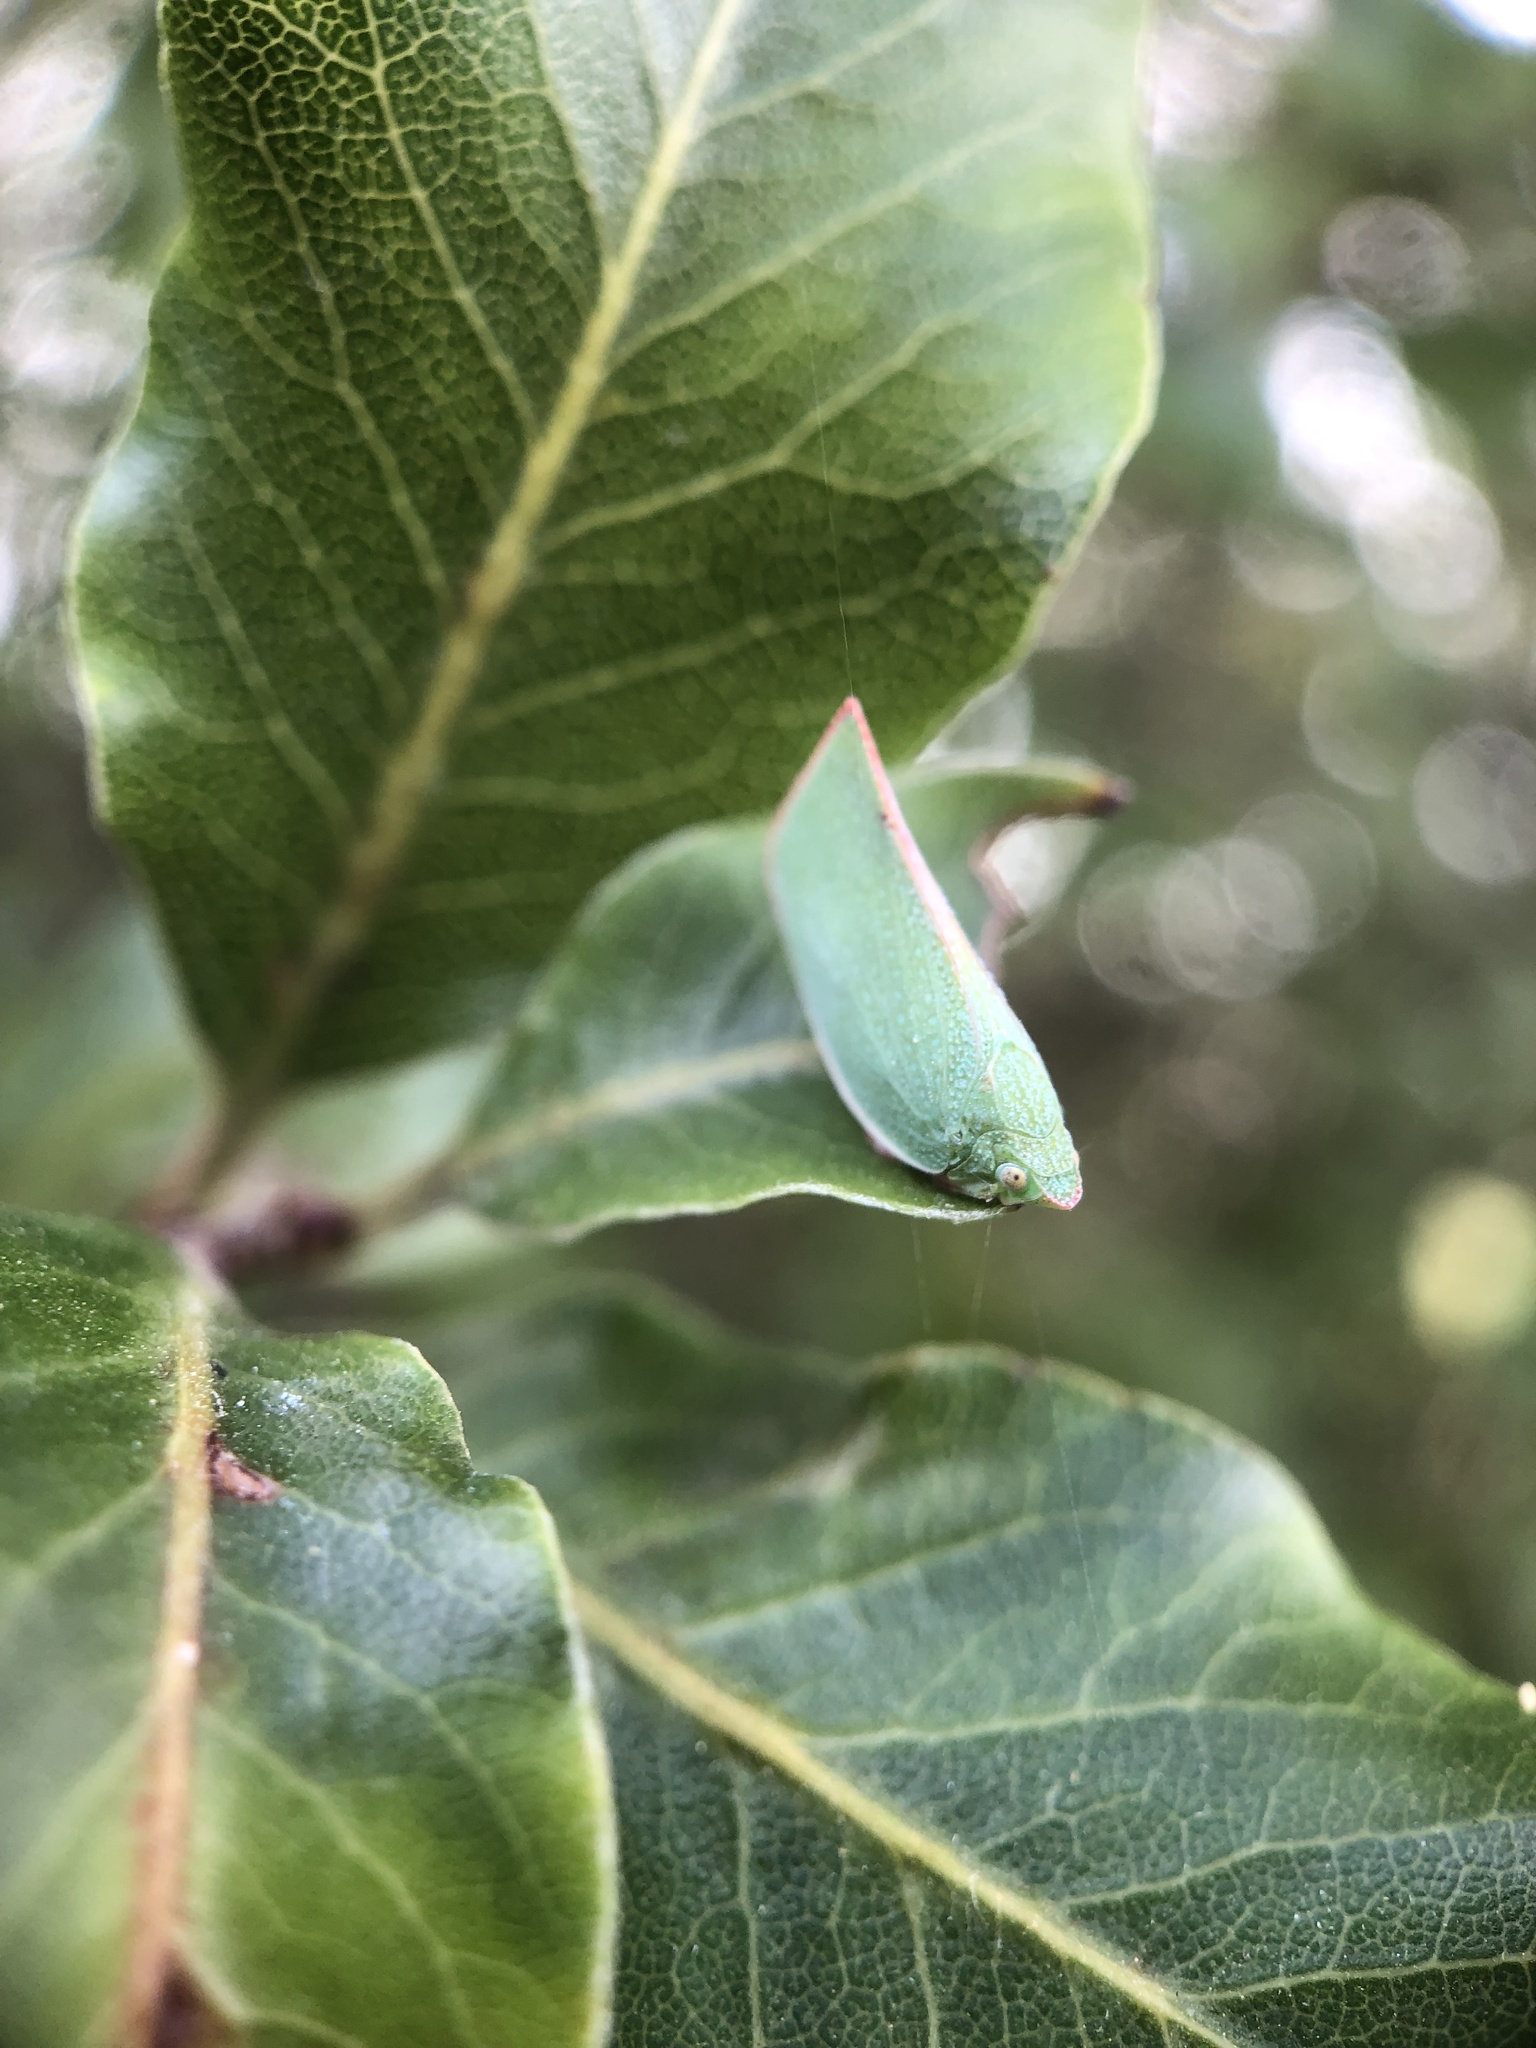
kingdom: Animalia
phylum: Arthropoda
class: Insecta
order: Hemiptera
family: Flatidae
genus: Siphanta
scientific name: Siphanta acuta
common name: Torpedo bug
